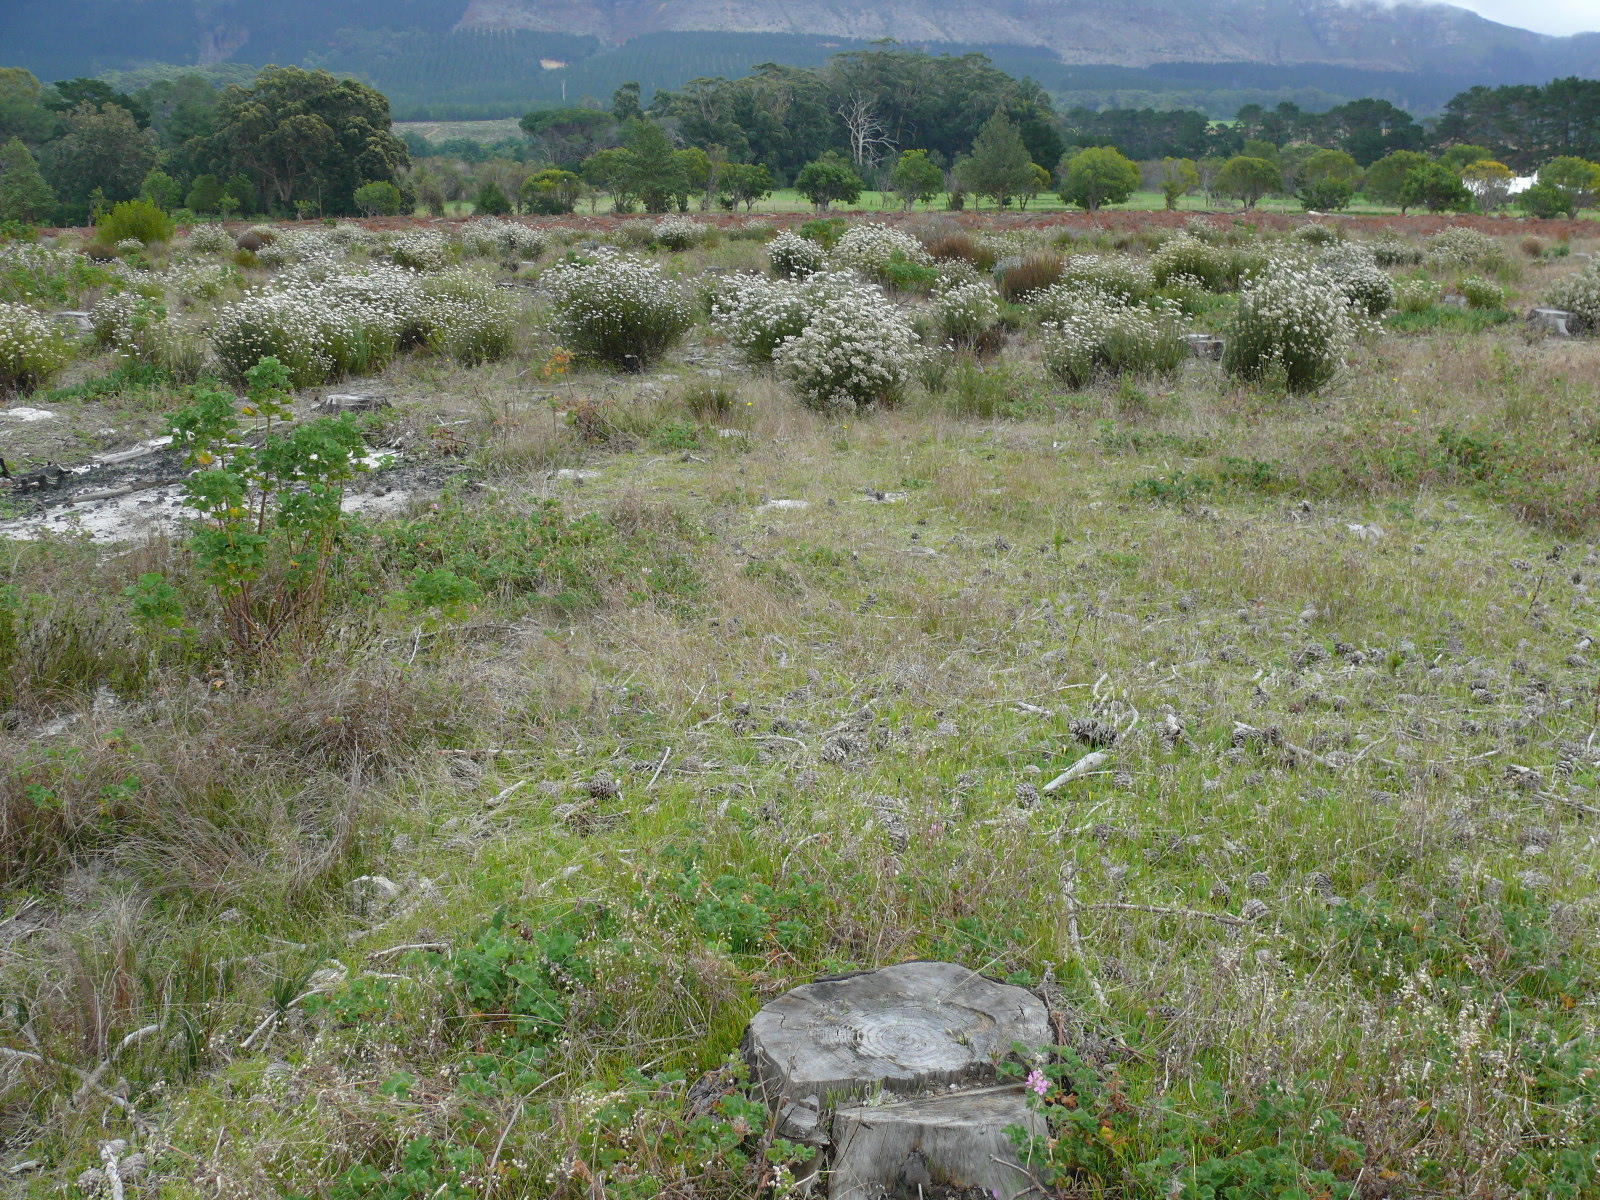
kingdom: Plantae
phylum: Tracheophyta
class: Liliopsida
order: Poales
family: Poaceae
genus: Briza
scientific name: Briza maxima
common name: Big quakinggrass
